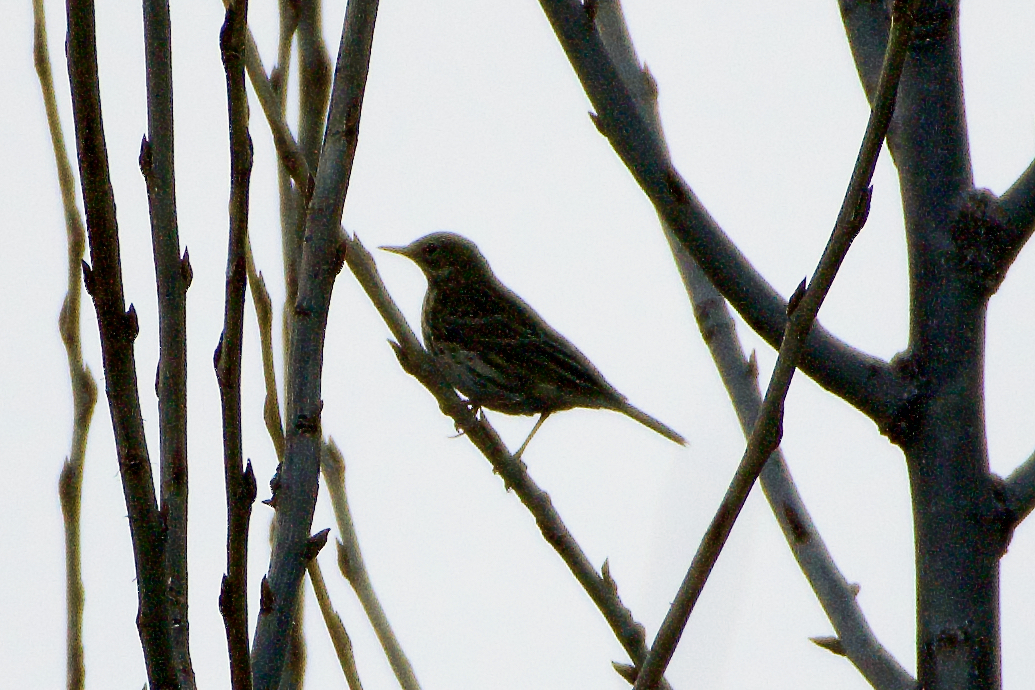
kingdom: Animalia
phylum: Chordata
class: Aves
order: Passeriformes
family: Motacillidae
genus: Anthus
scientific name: Anthus pratensis
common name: Meadow pipit
